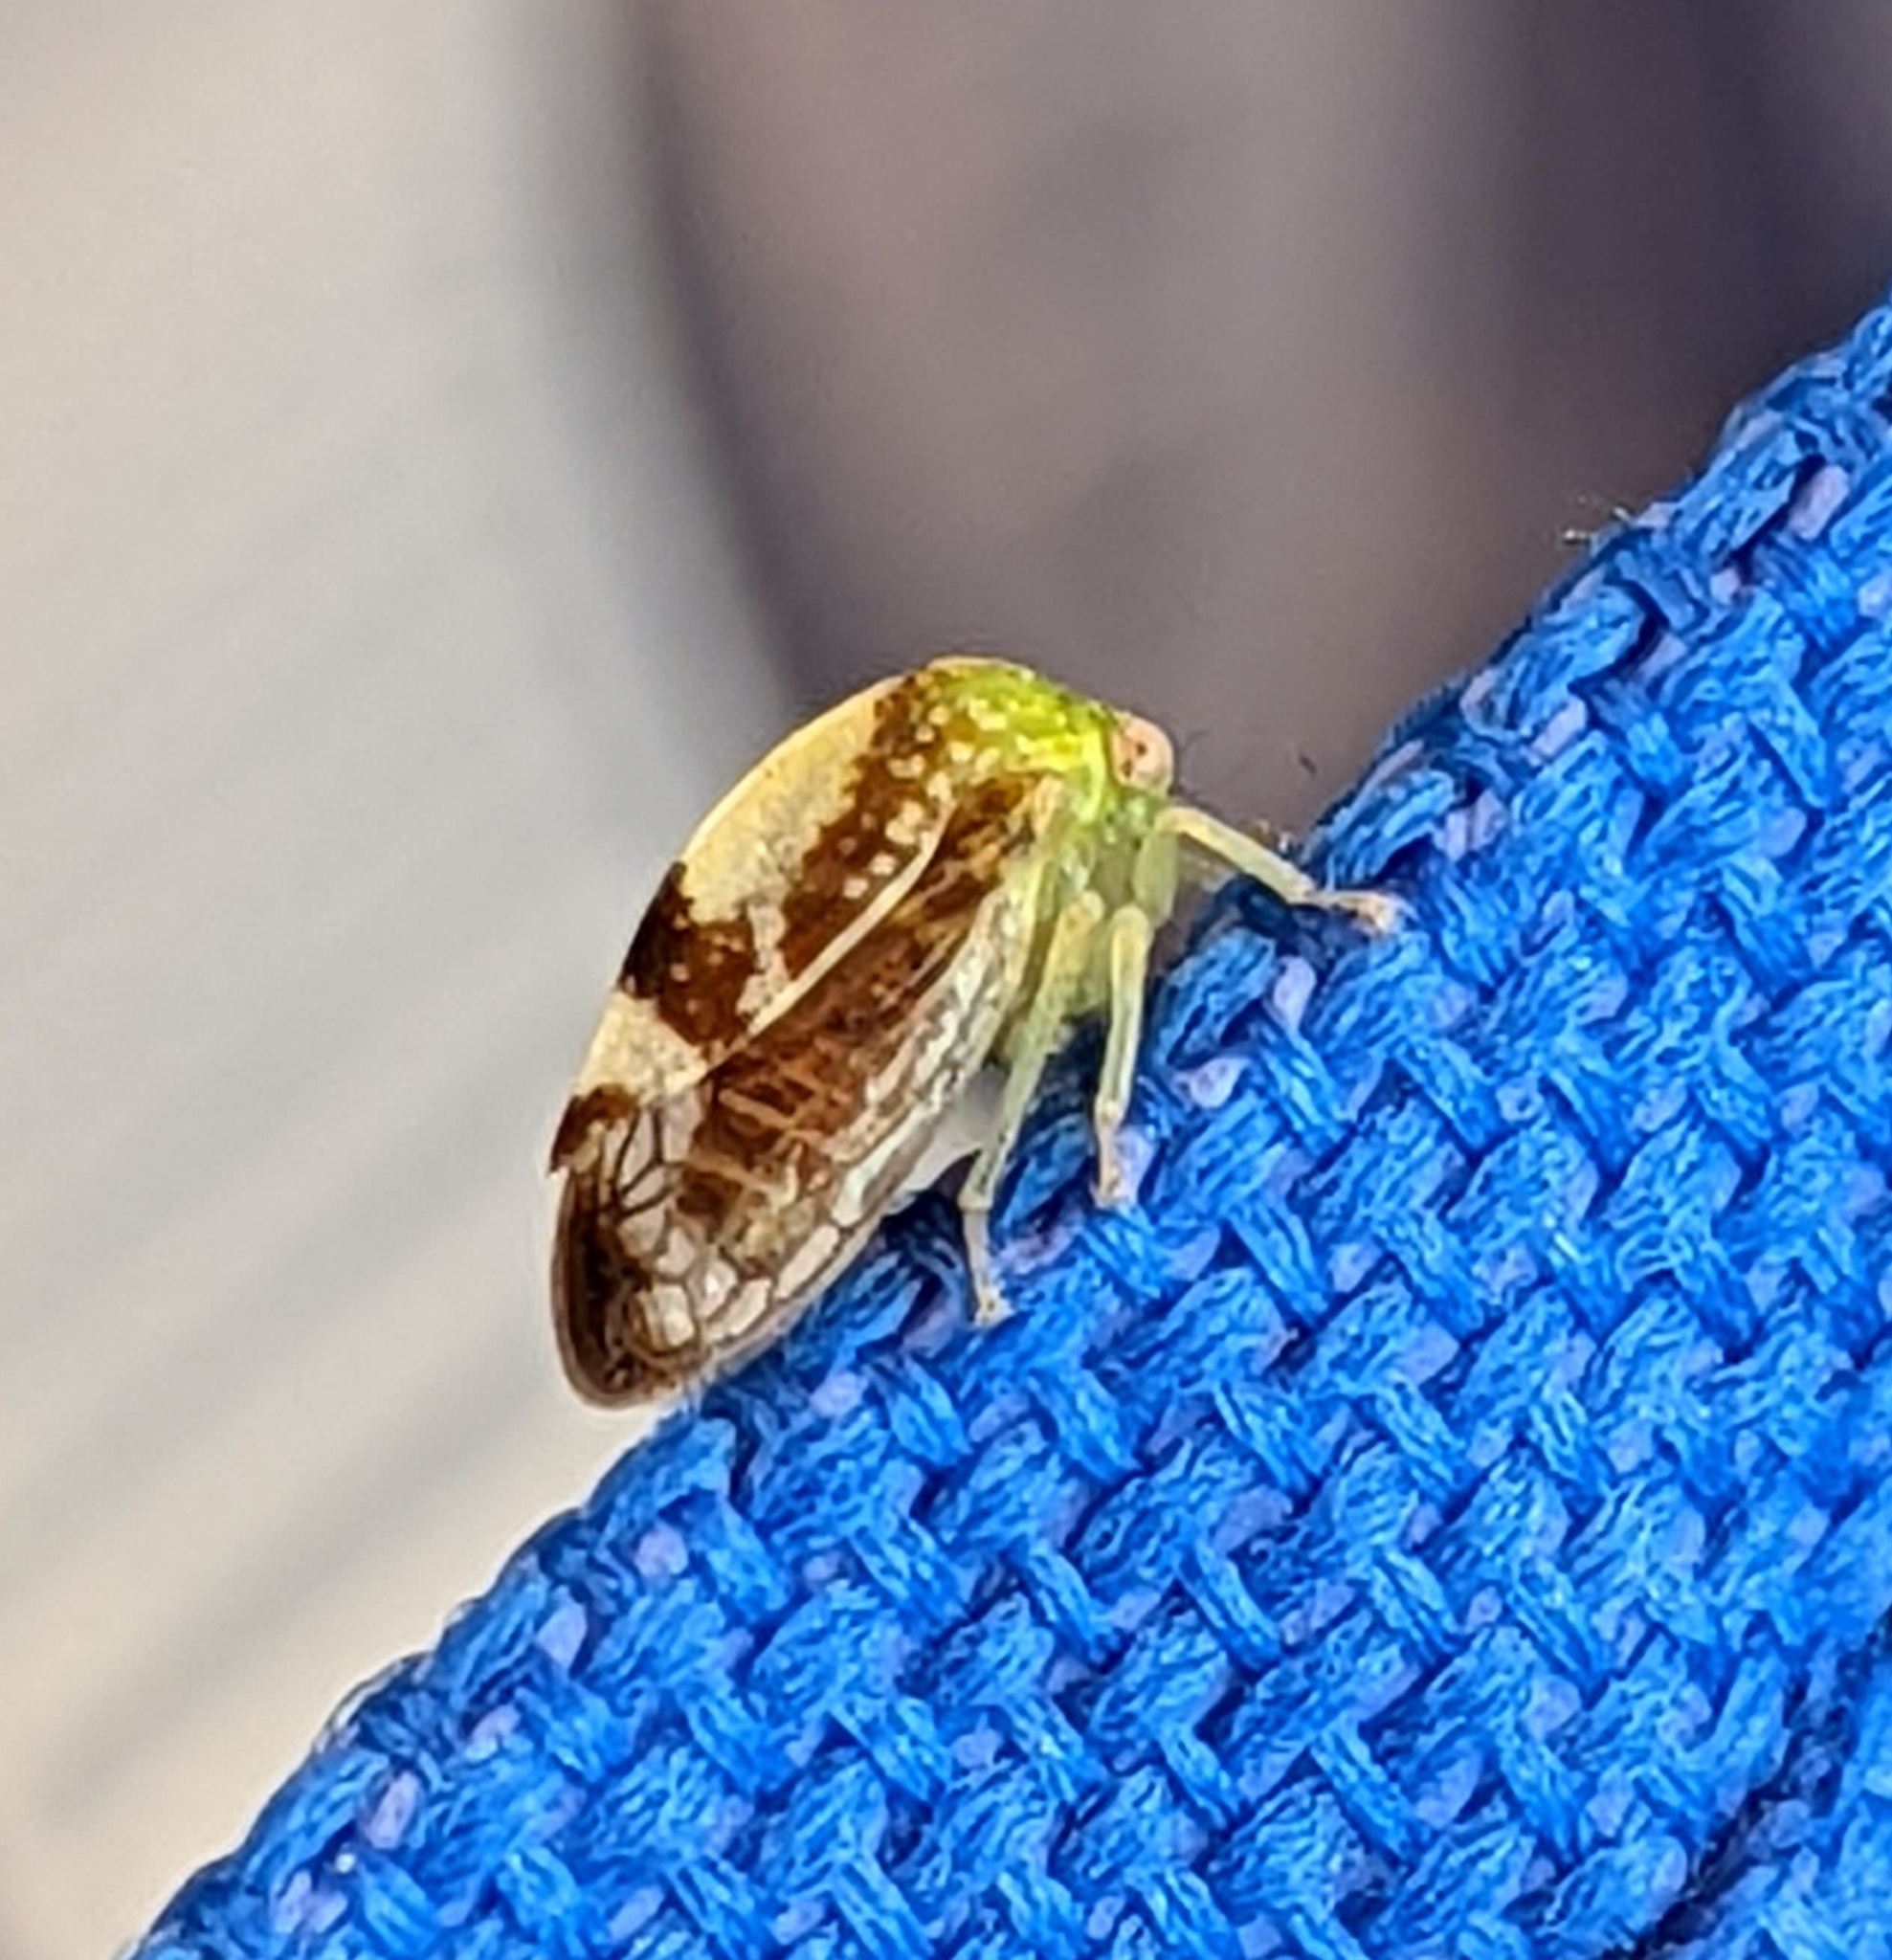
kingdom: Animalia
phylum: Arthropoda
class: Insecta
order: Hemiptera
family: Membracidae
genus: Atymna
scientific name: Atymna helena
